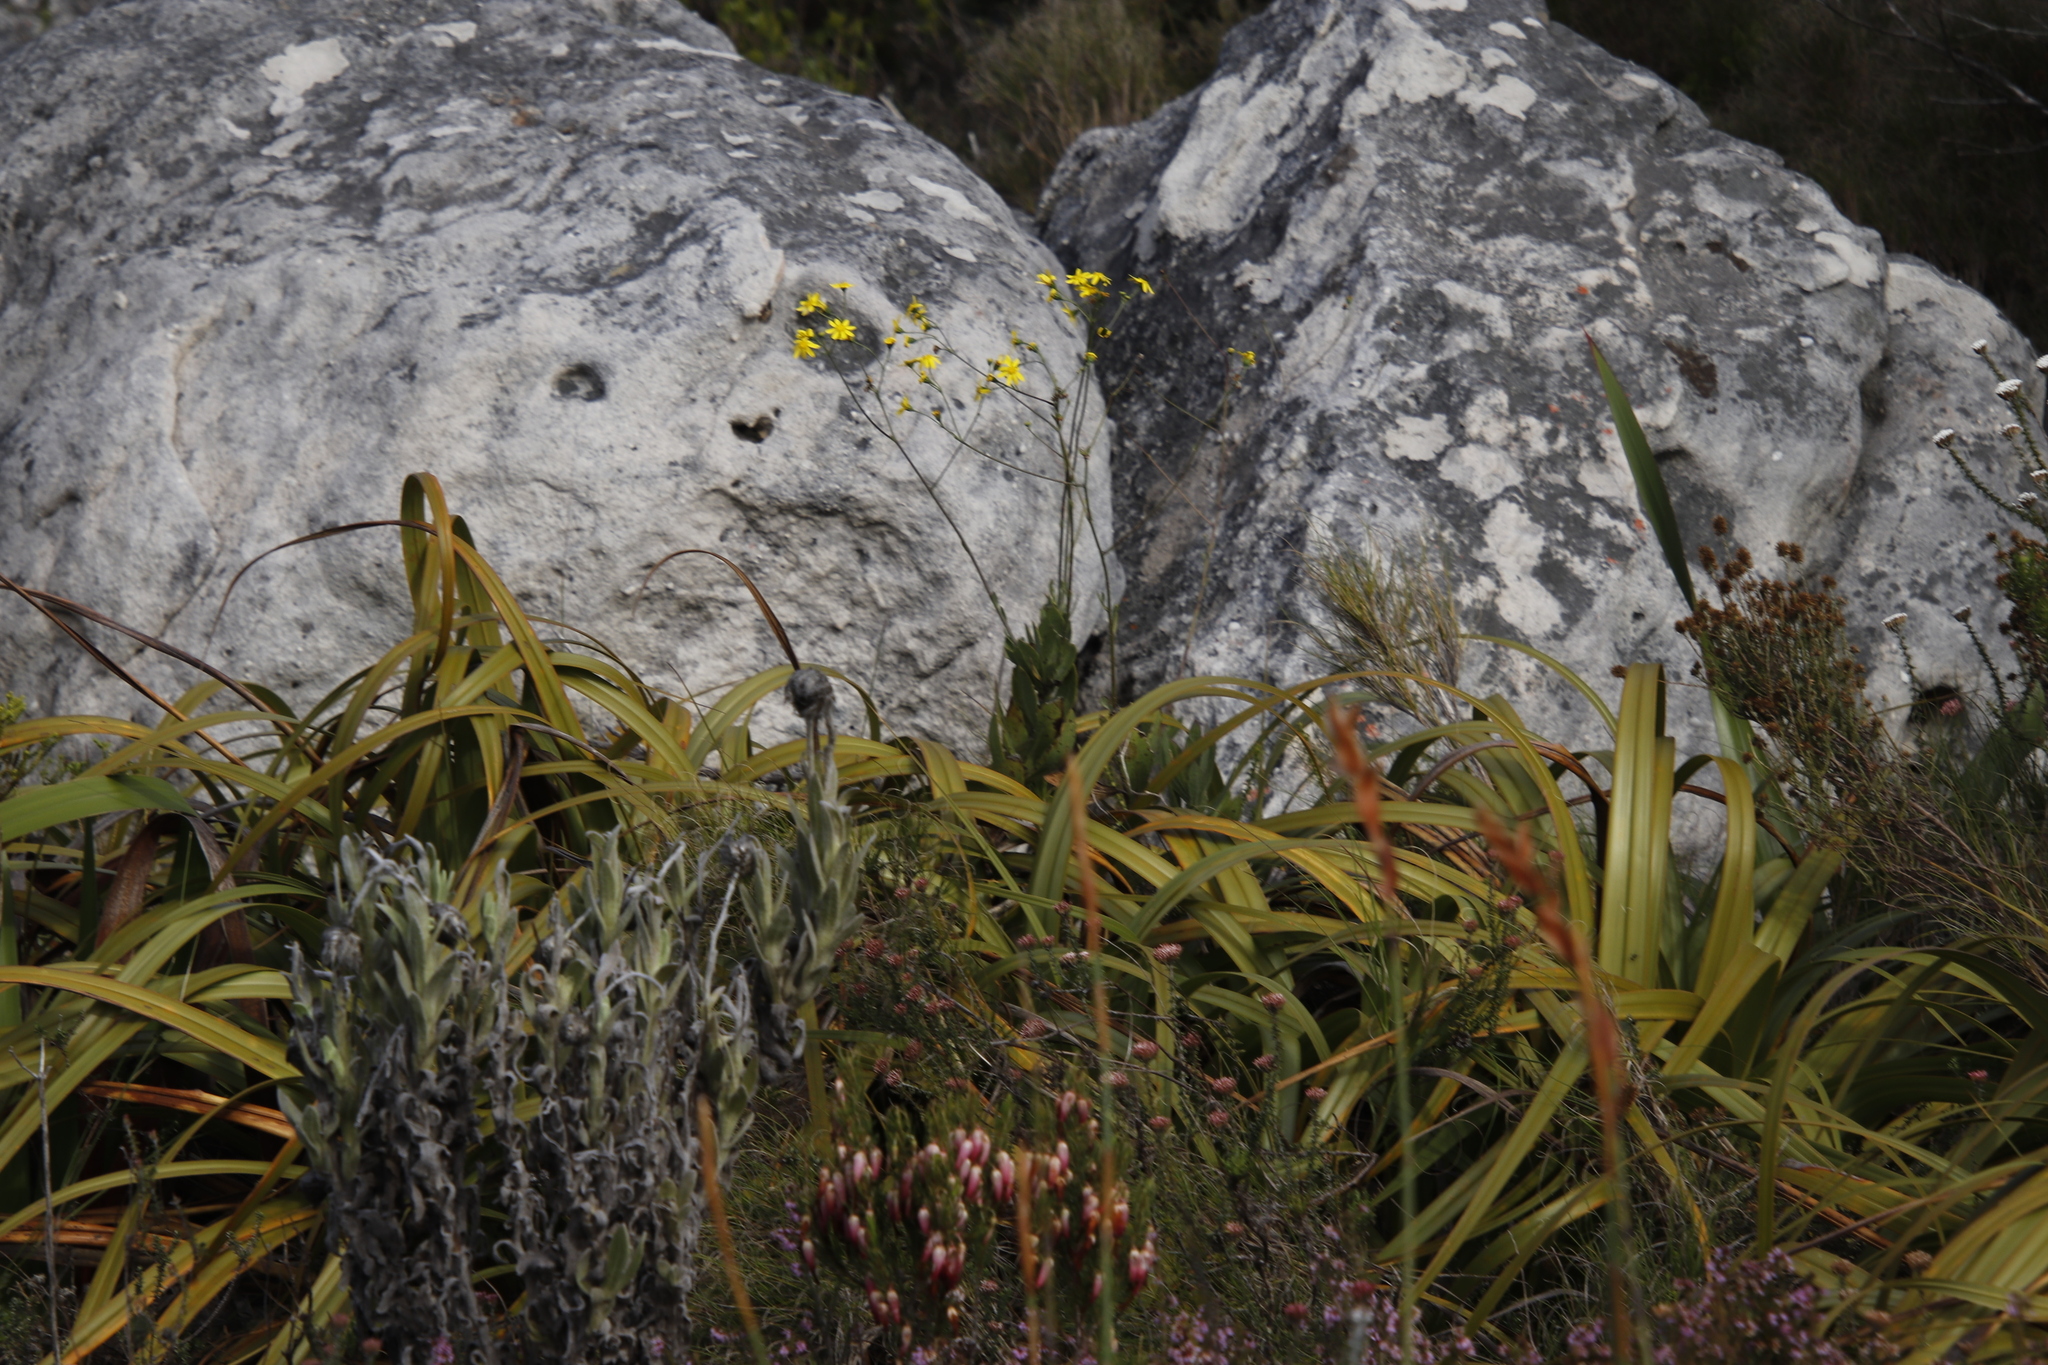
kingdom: Plantae
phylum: Tracheophyta
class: Magnoliopsida
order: Asterales
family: Asteraceae
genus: Othonna
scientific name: Othonna quinquedentata
